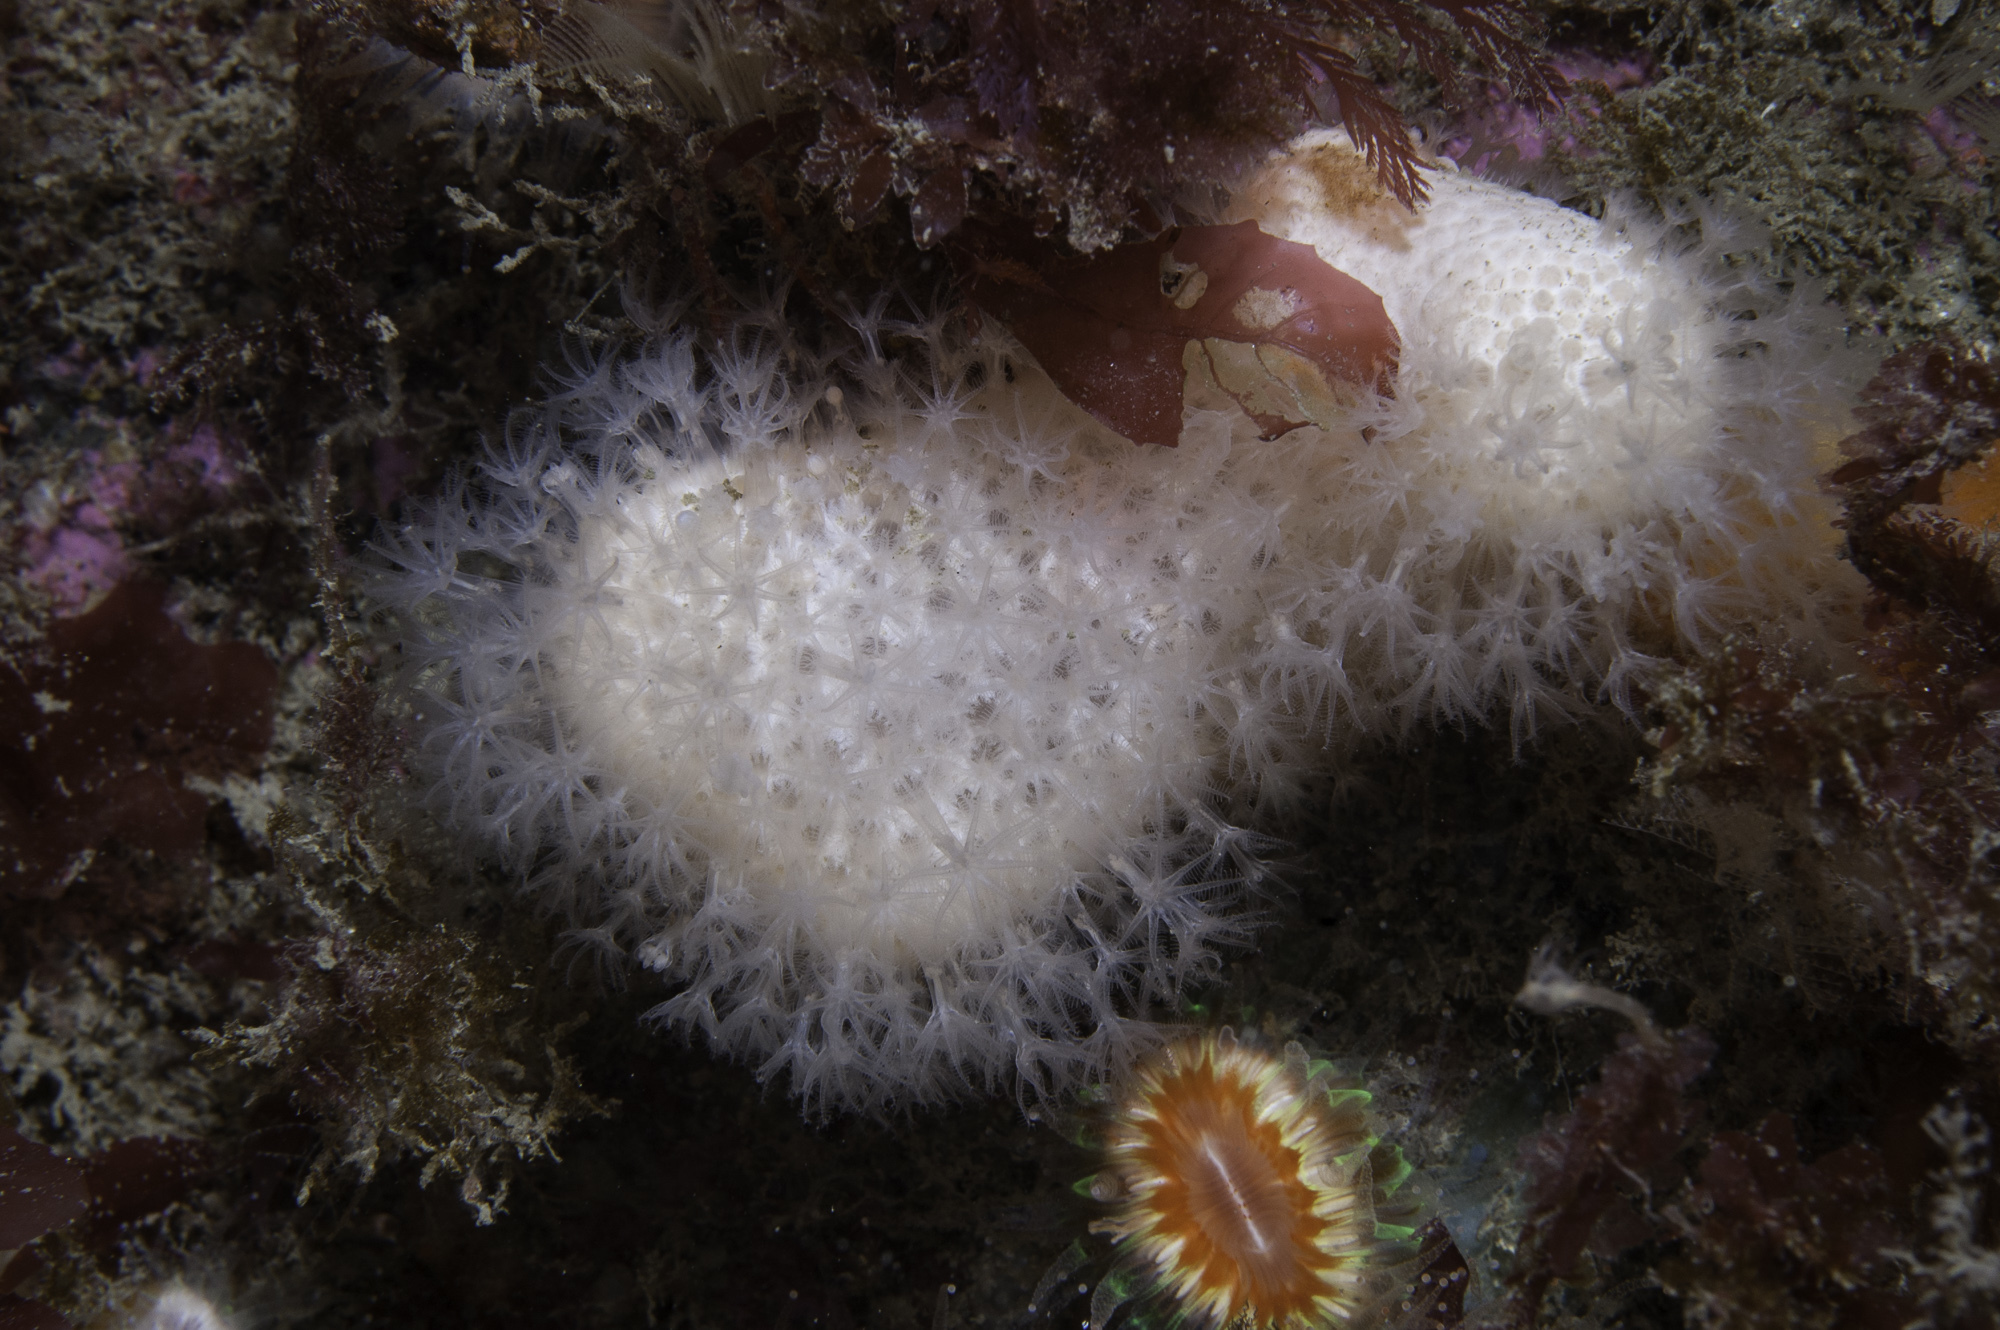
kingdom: Animalia
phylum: Cnidaria
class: Anthozoa
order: Malacalcyonacea
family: Alcyoniidae
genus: Alcyonium
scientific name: Alcyonium digitatum
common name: Dead man's fingers
